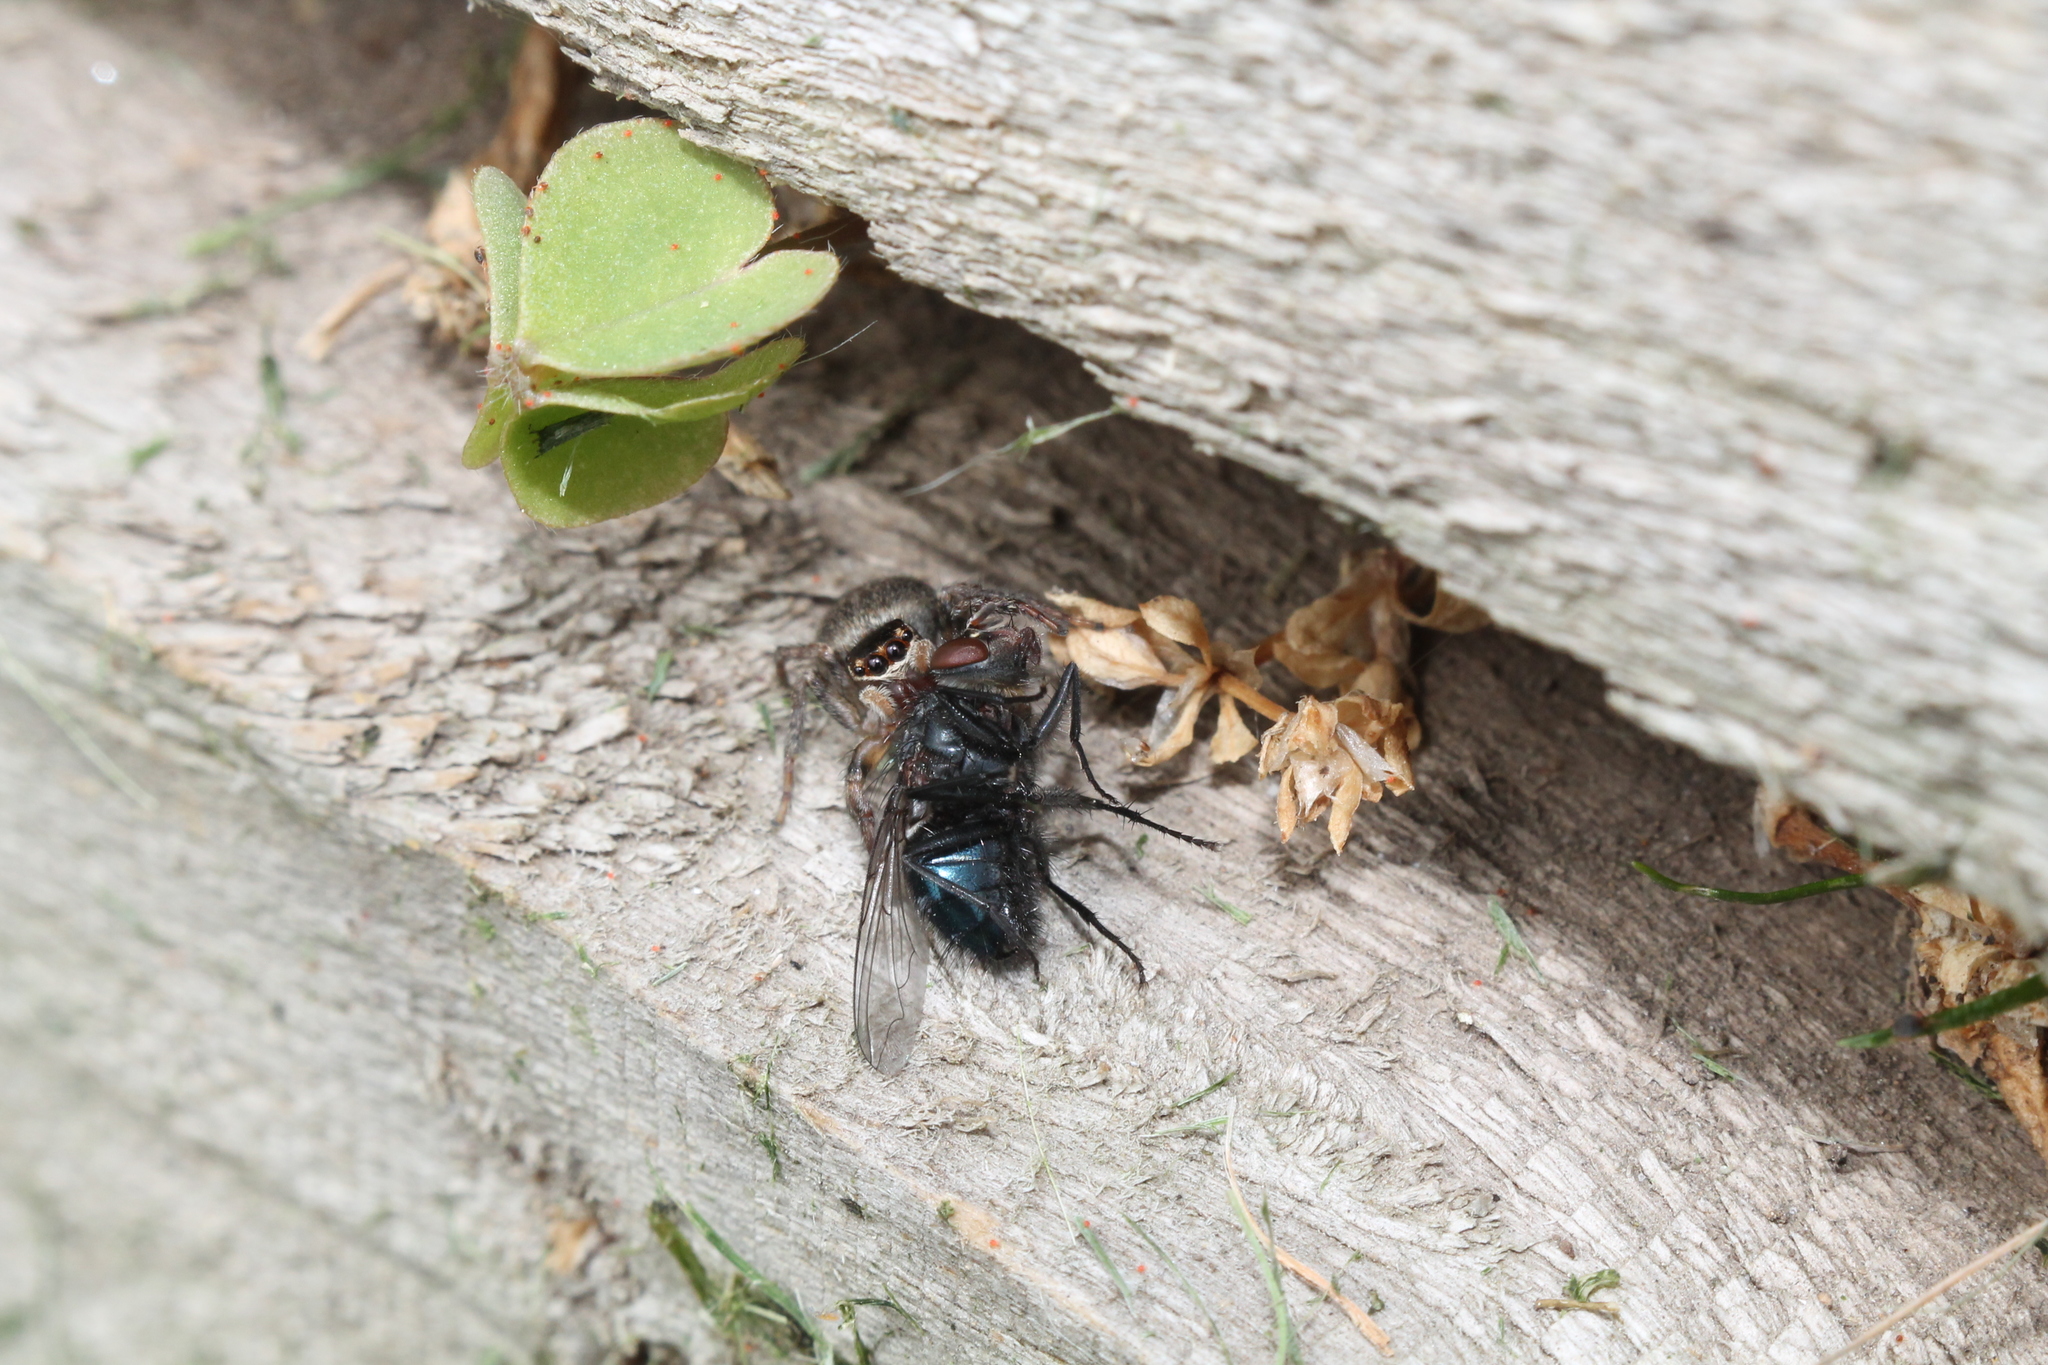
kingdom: Animalia
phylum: Arthropoda
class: Arachnida
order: Araneae
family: Salticidae
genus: Maratus
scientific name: Maratus griseus
